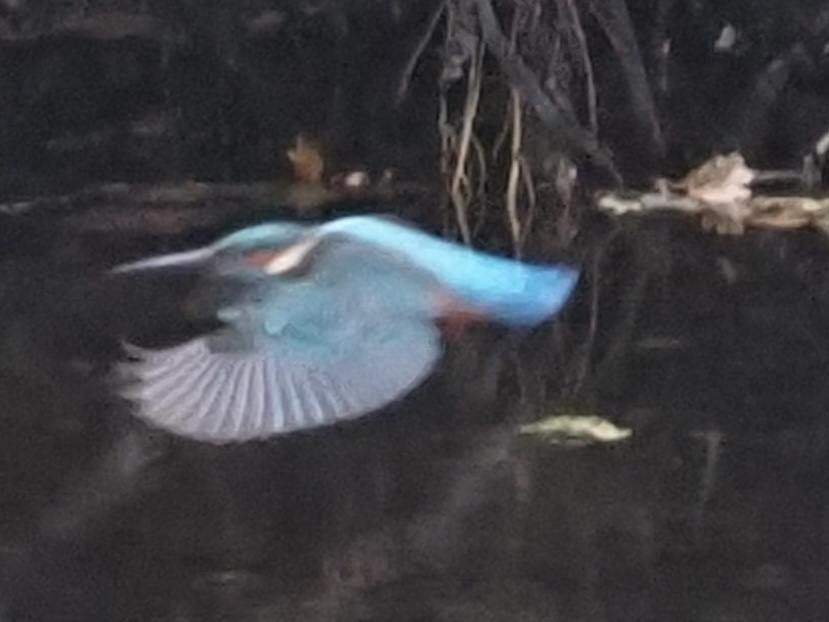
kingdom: Animalia
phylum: Chordata
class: Aves
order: Coraciiformes
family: Alcedinidae
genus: Alcedo
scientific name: Alcedo atthis
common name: Common kingfisher
